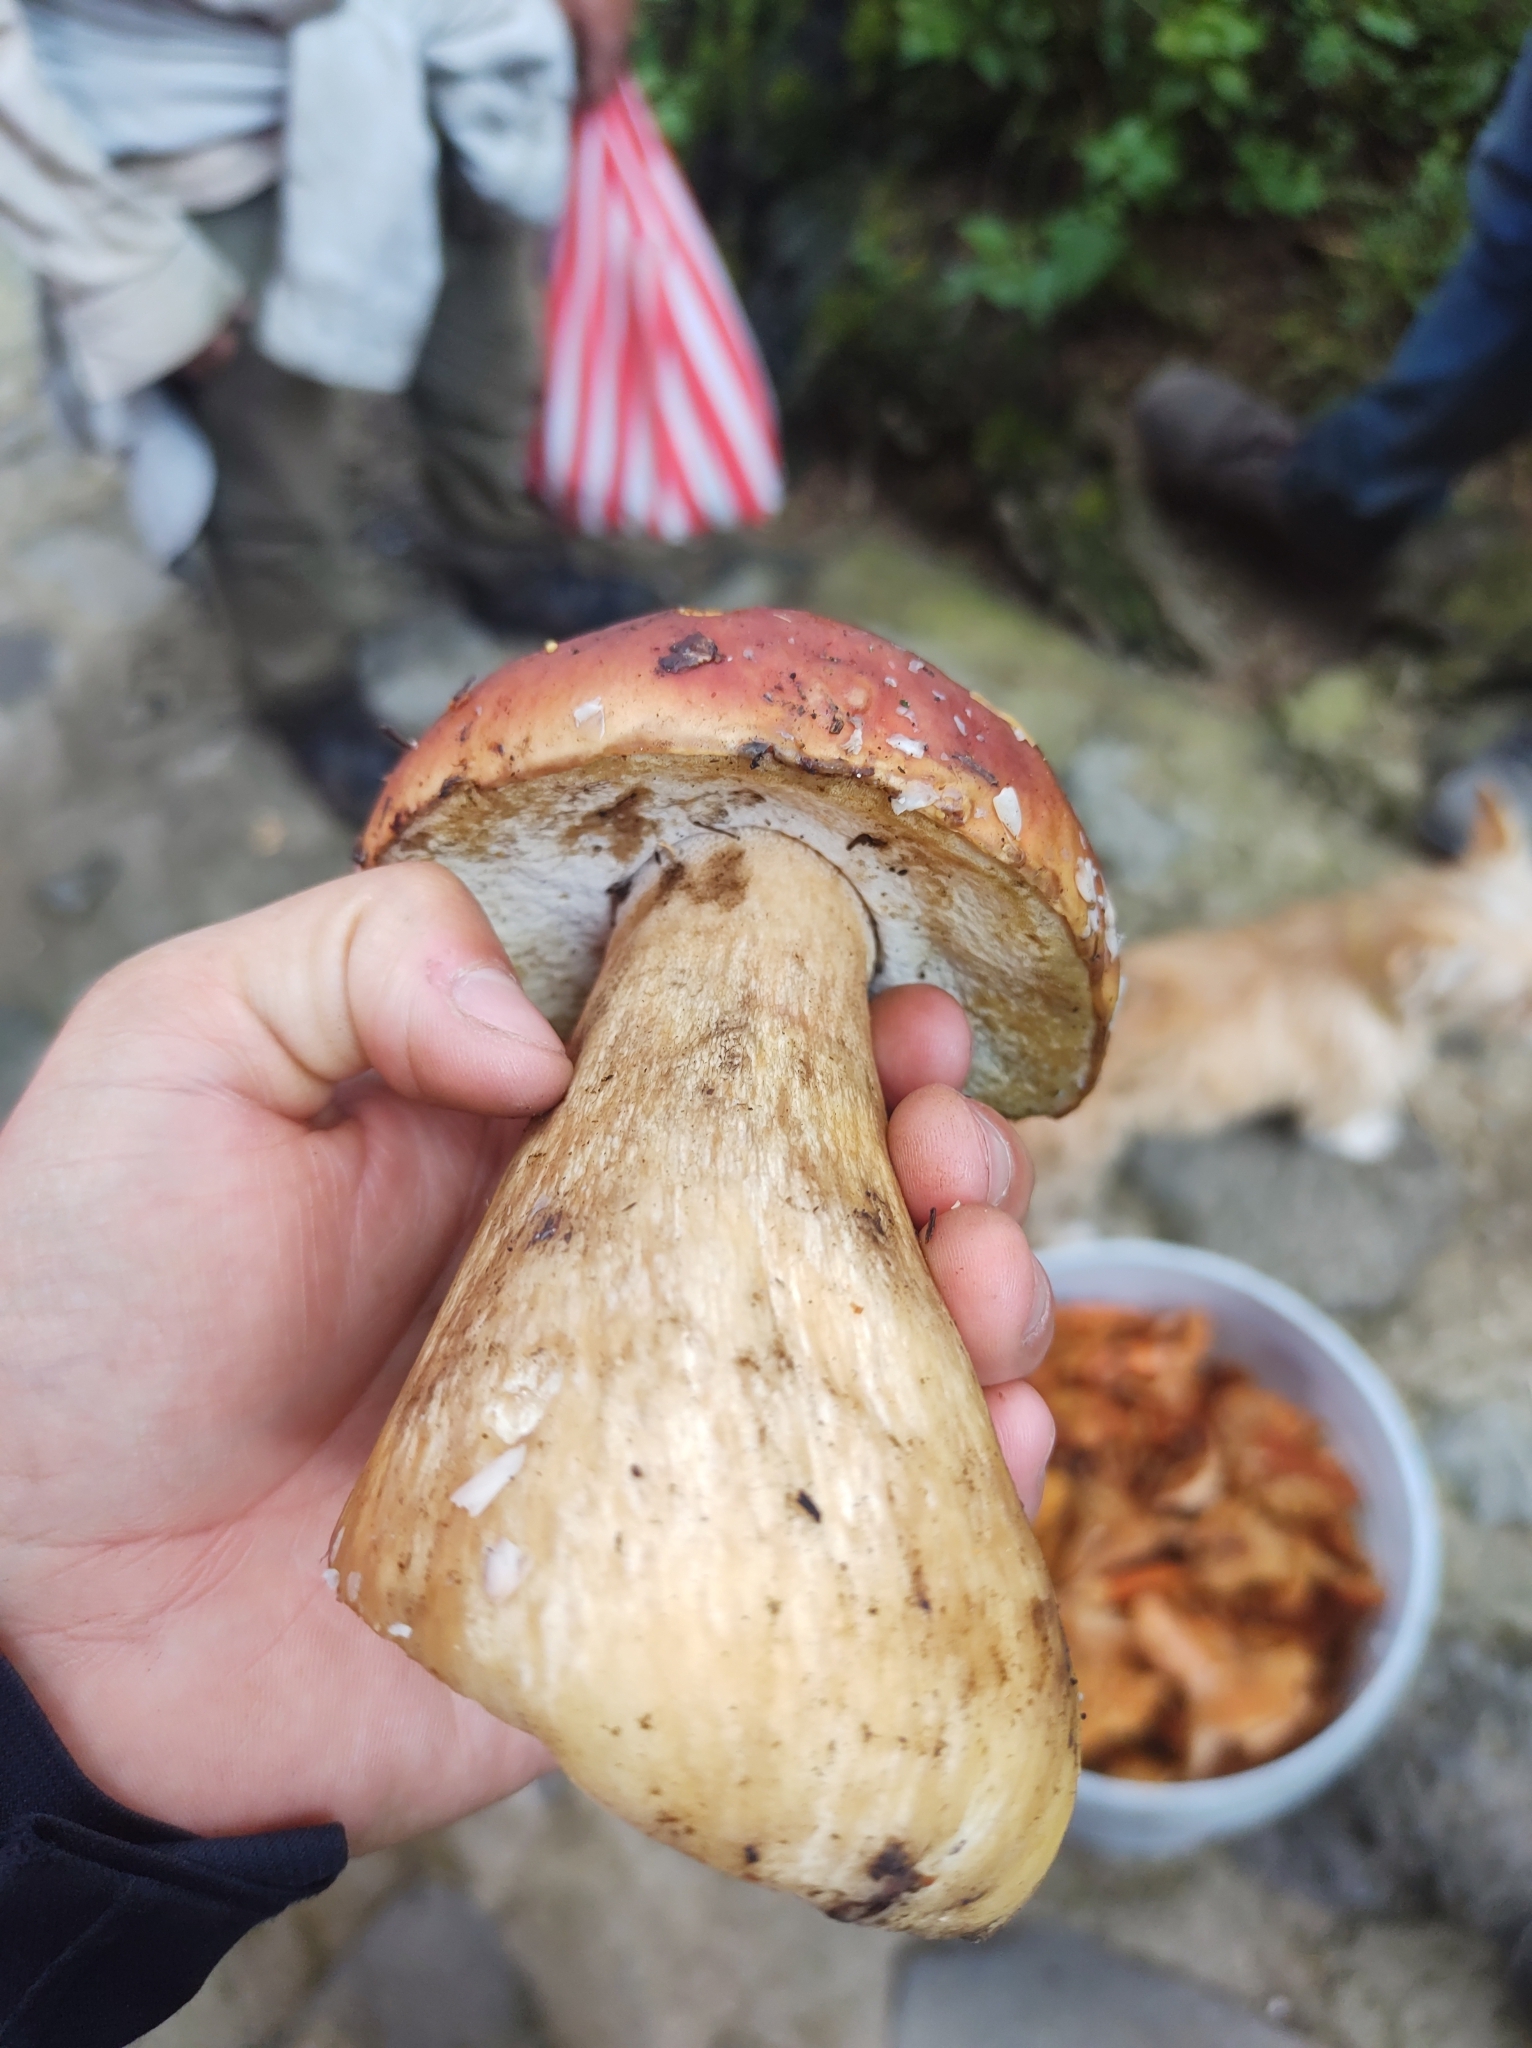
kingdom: Fungi
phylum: Basidiomycota
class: Agaricomycetes
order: Boletales
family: Boletaceae
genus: Boletus
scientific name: Boletus rubriceps
